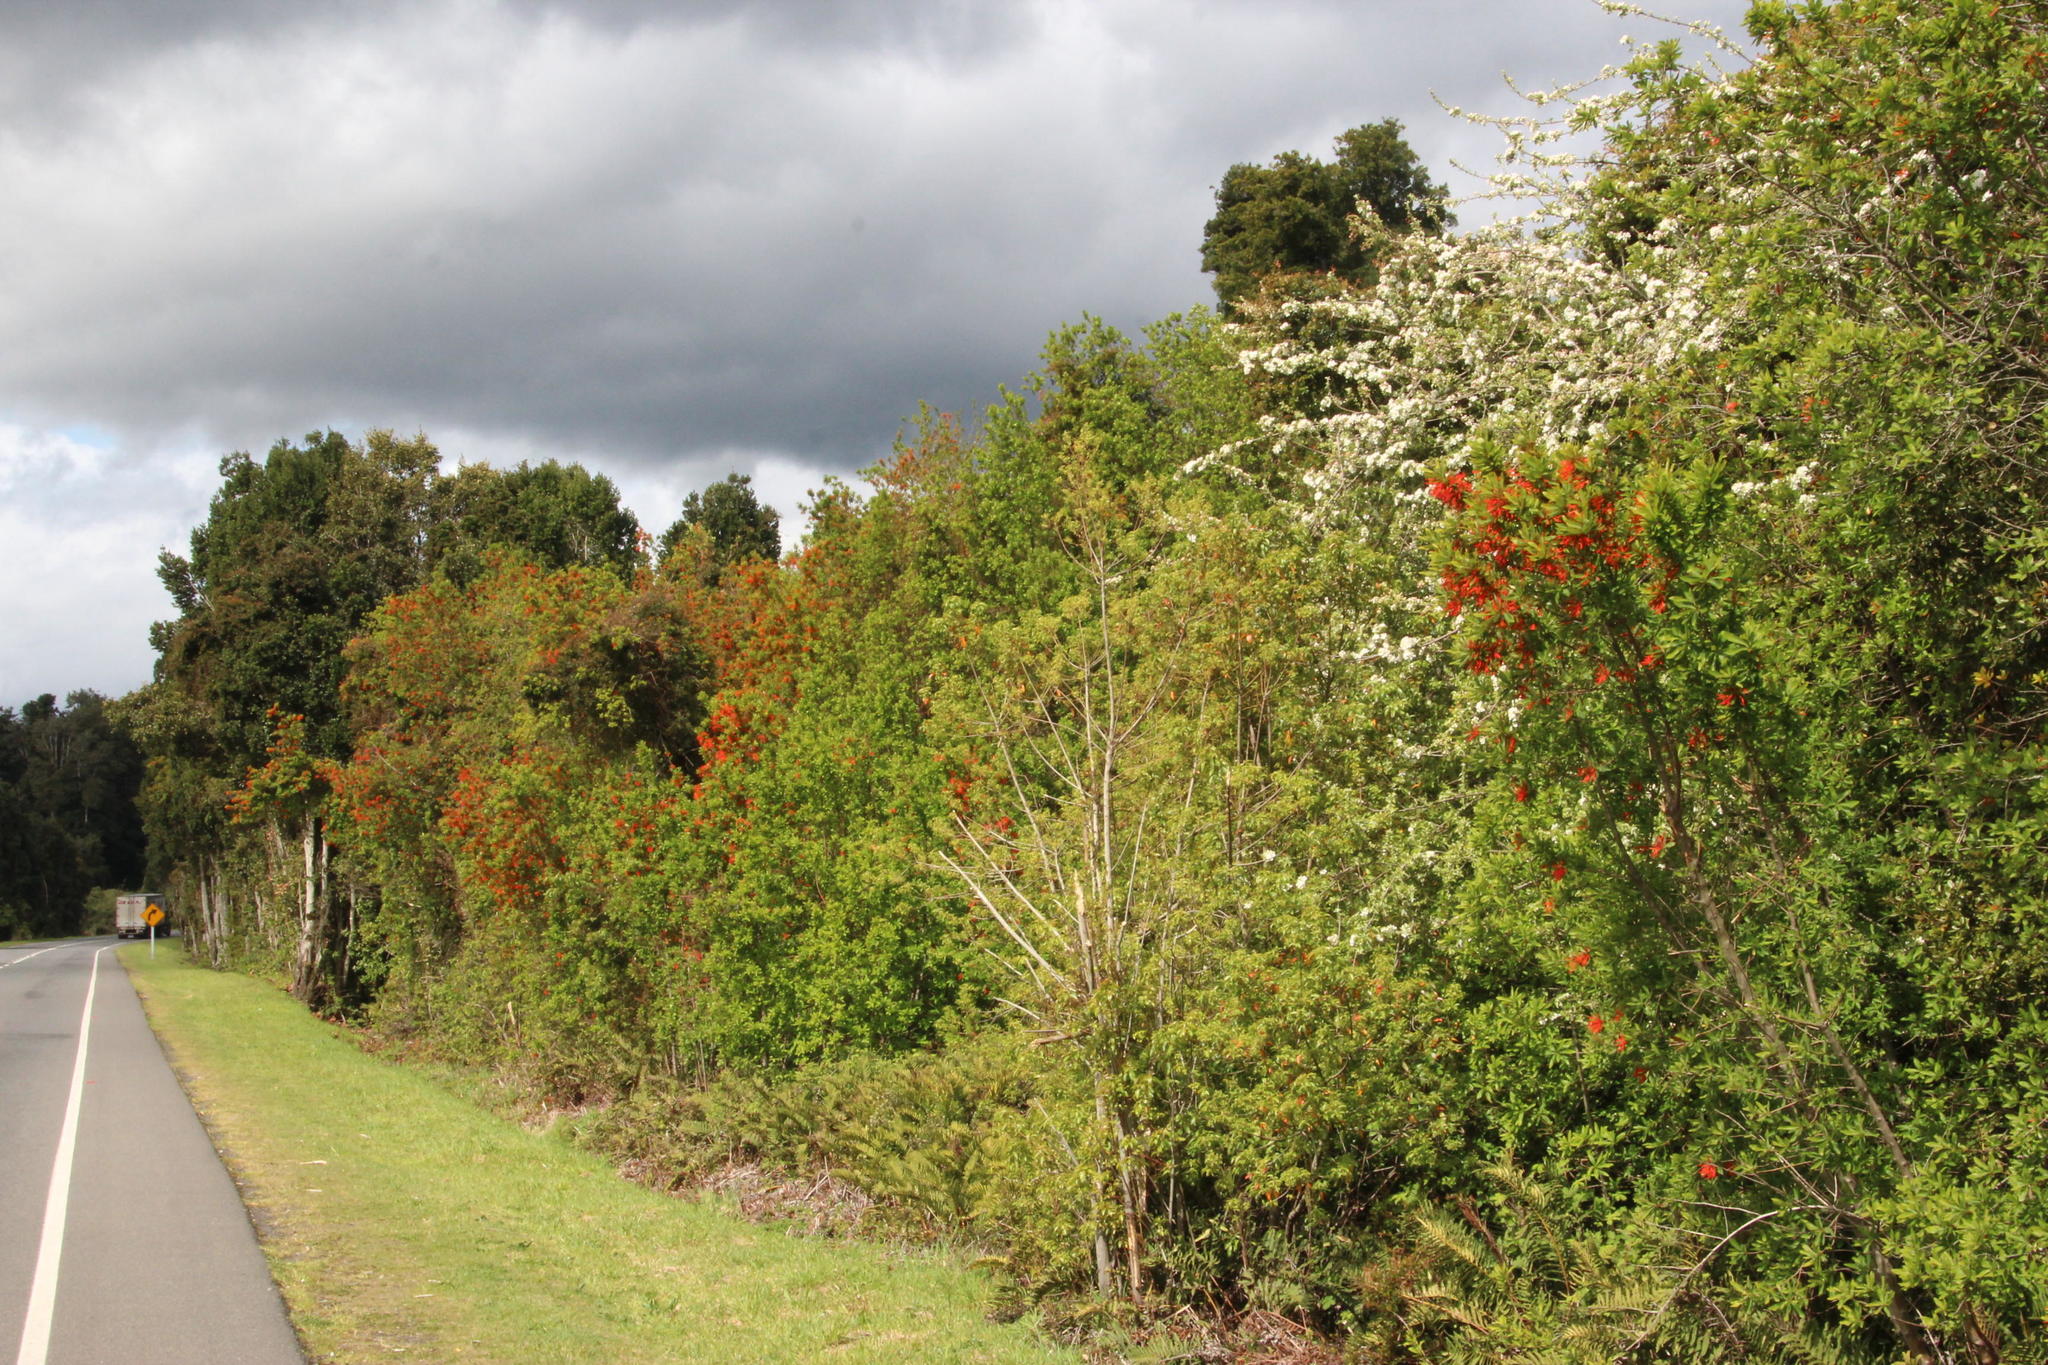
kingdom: Plantae
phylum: Tracheophyta
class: Magnoliopsida
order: Proteales
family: Proteaceae
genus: Embothrium
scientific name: Embothrium coccineum
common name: Chilean firebush
